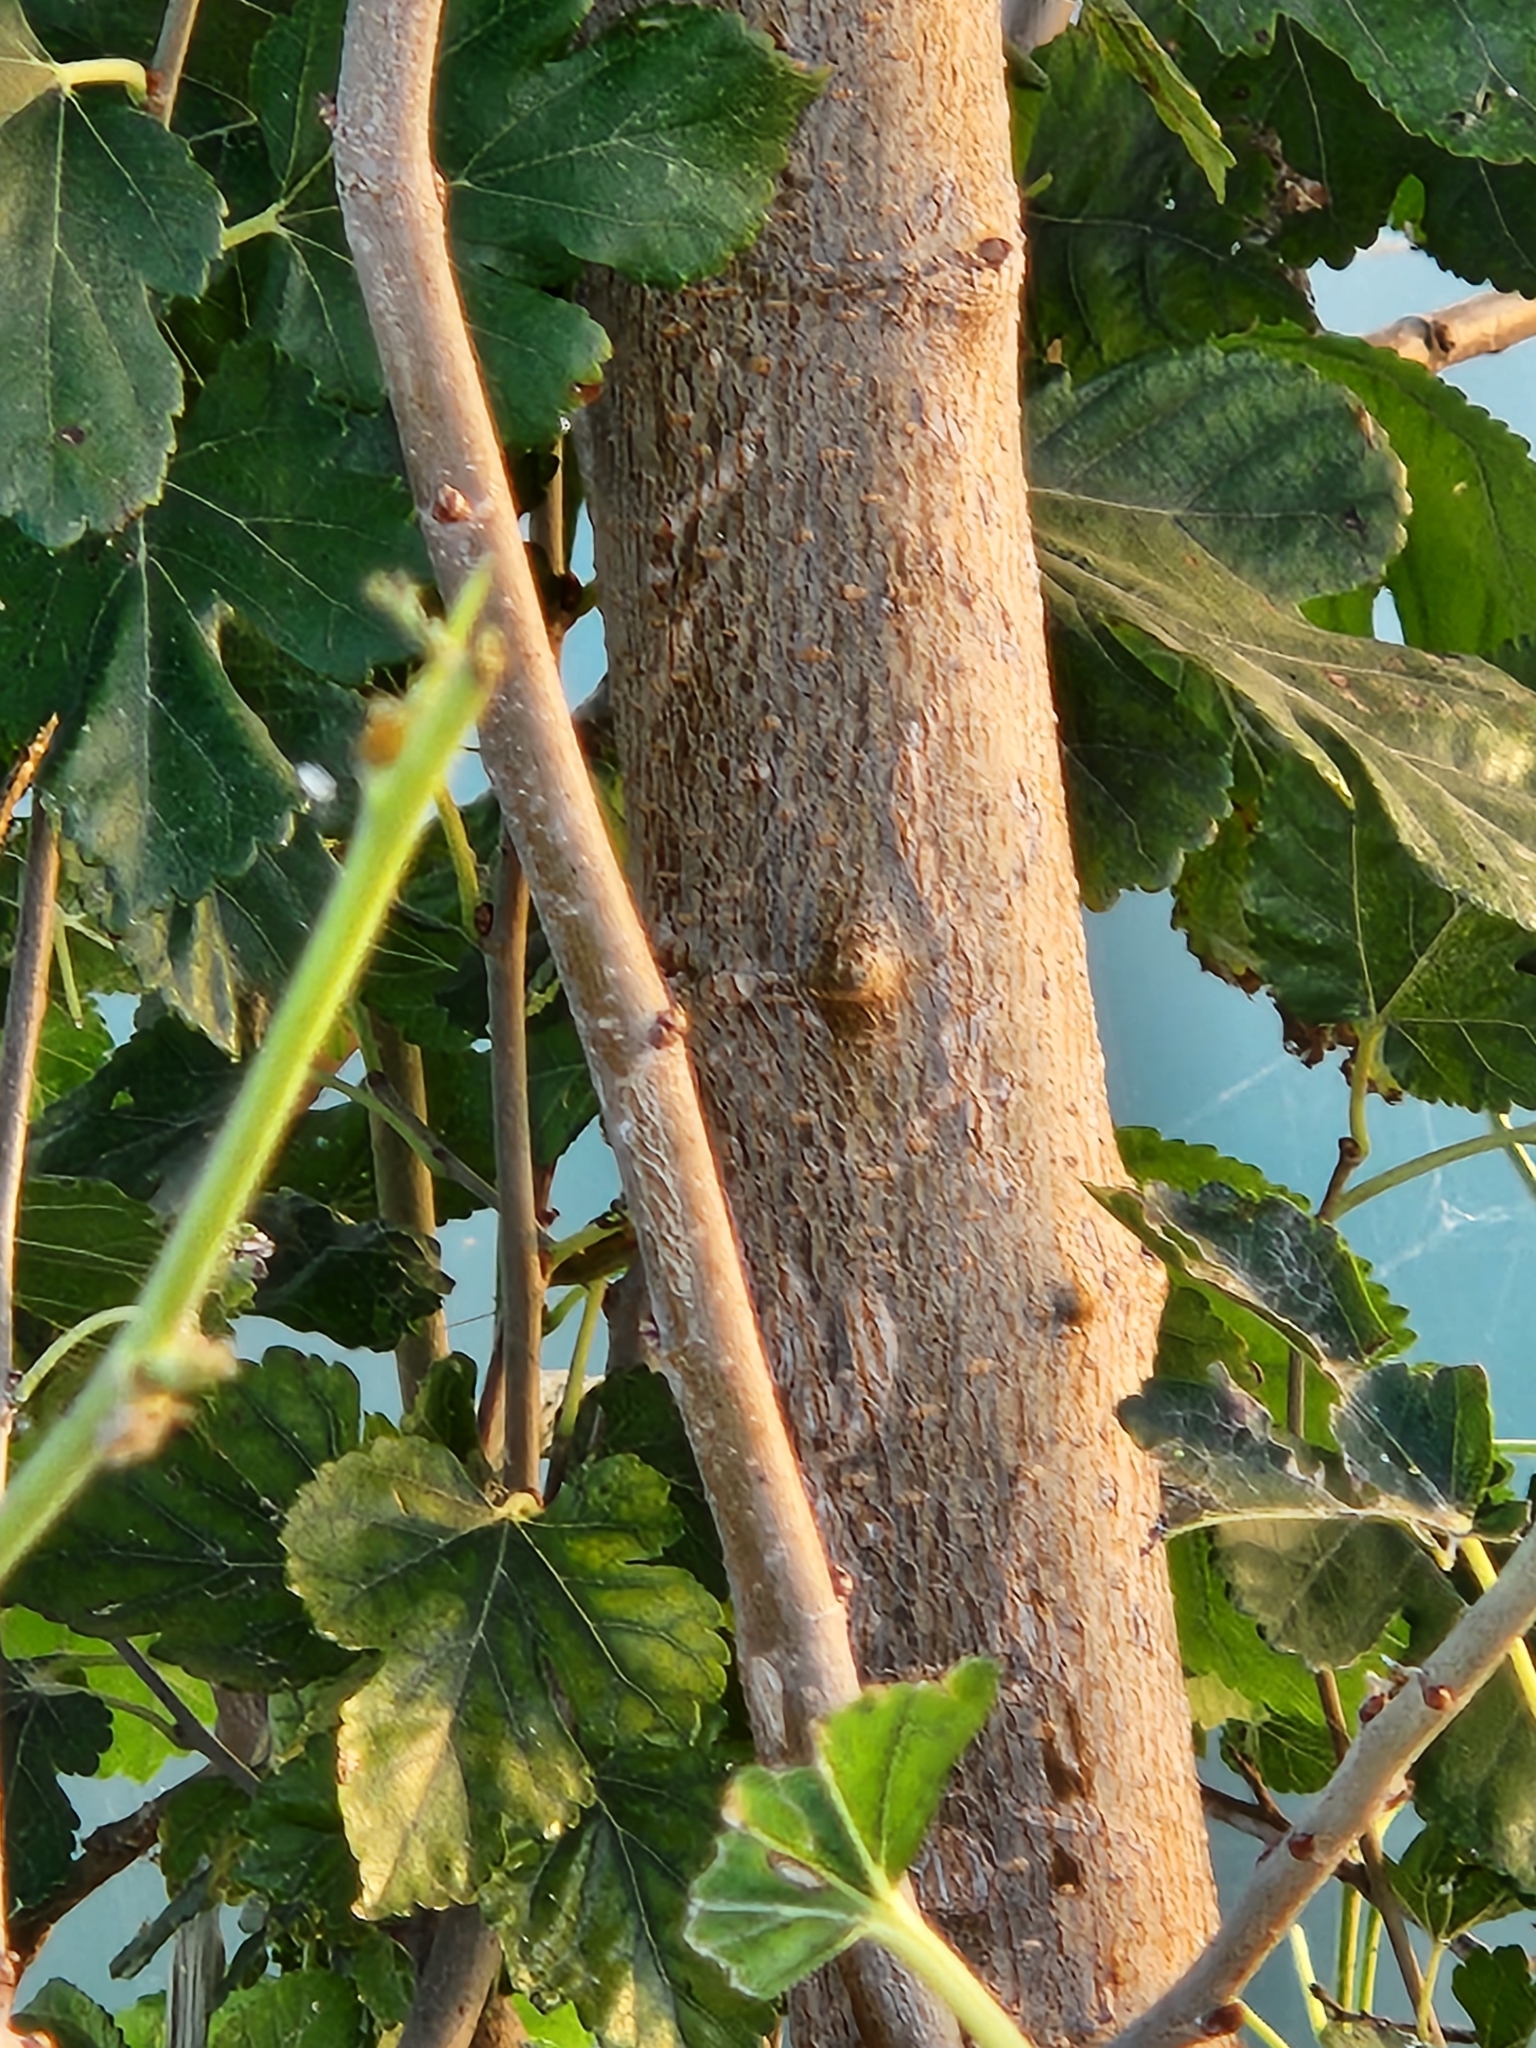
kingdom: Plantae
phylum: Tracheophyta
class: Magnoliopsida
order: Rosales
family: Moraceae
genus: Morus
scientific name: Morus alba
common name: White mulberry
